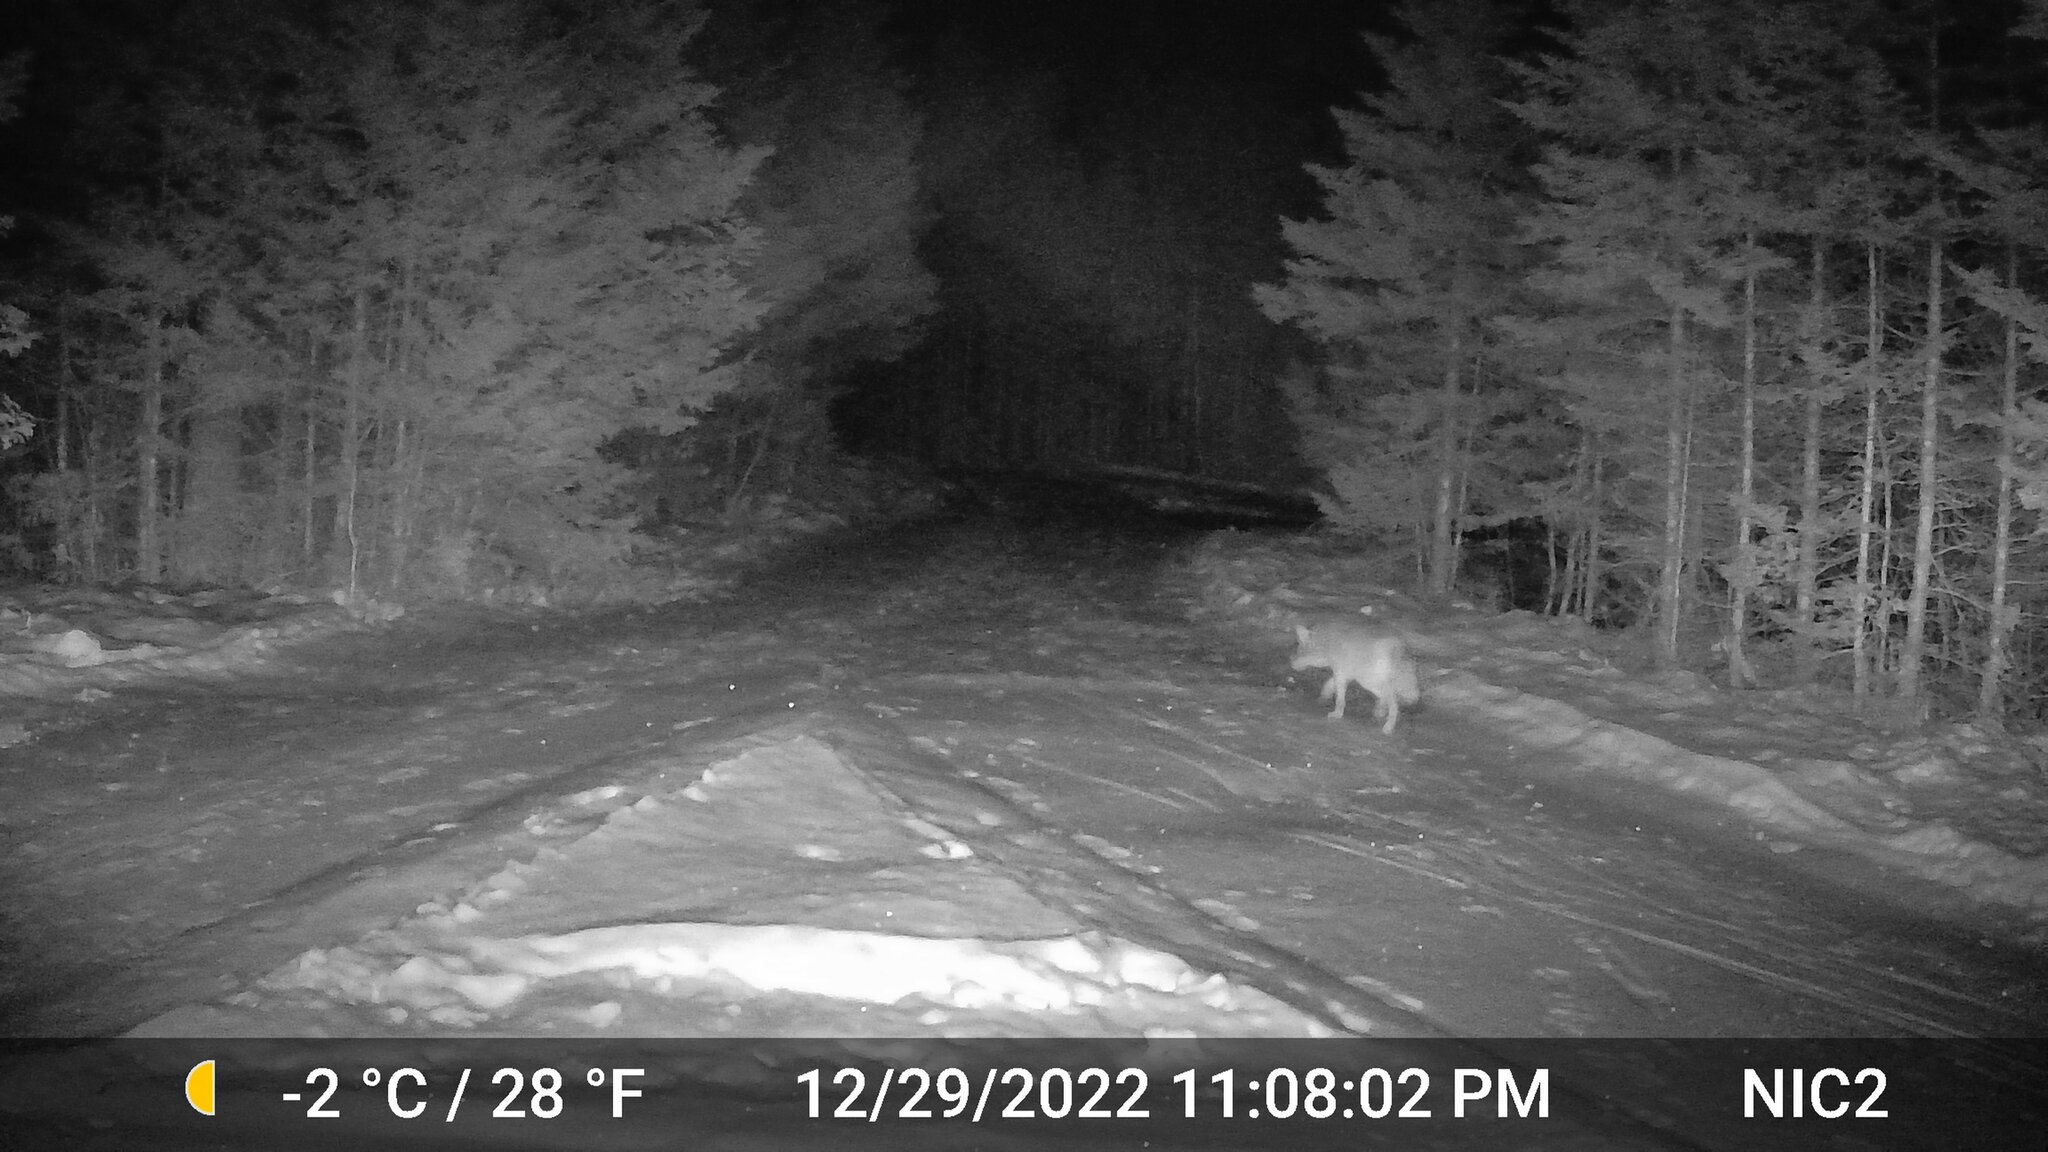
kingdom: Animalia
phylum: Chordata
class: Mammalia
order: Carnivora
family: Canidae
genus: Canis
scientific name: Canis latrans
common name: Coyote
